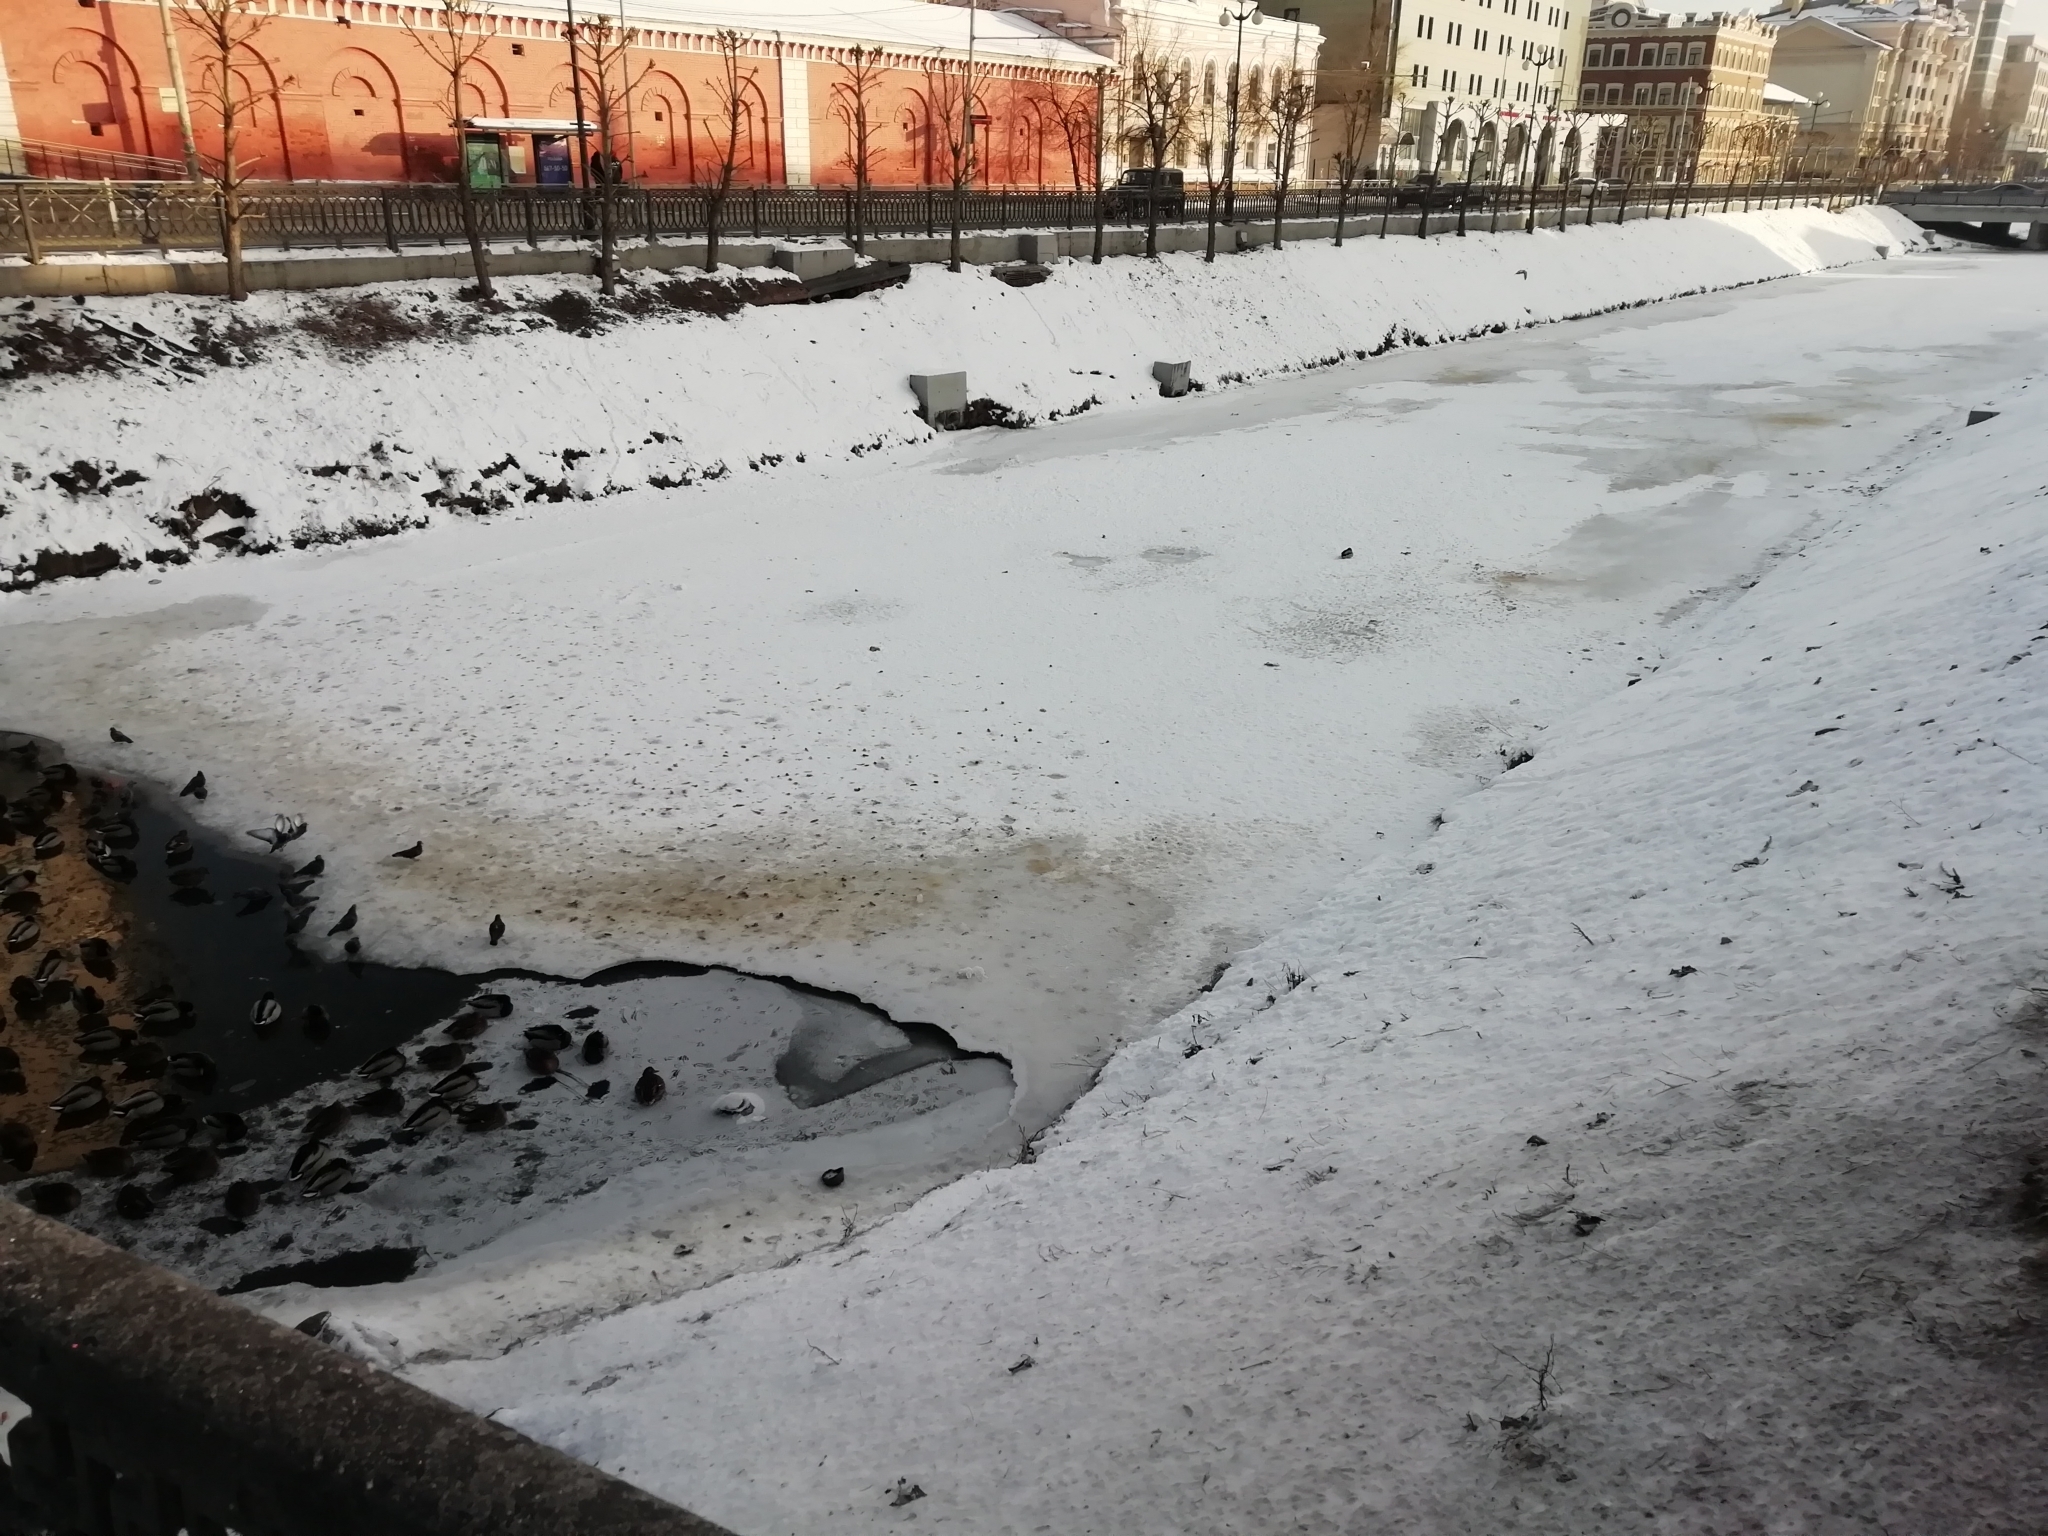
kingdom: Animalia
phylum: Chordata
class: Aves
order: Anseriformes
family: Anatidae
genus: Anas
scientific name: Anas platyrhynchos
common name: Mallard
